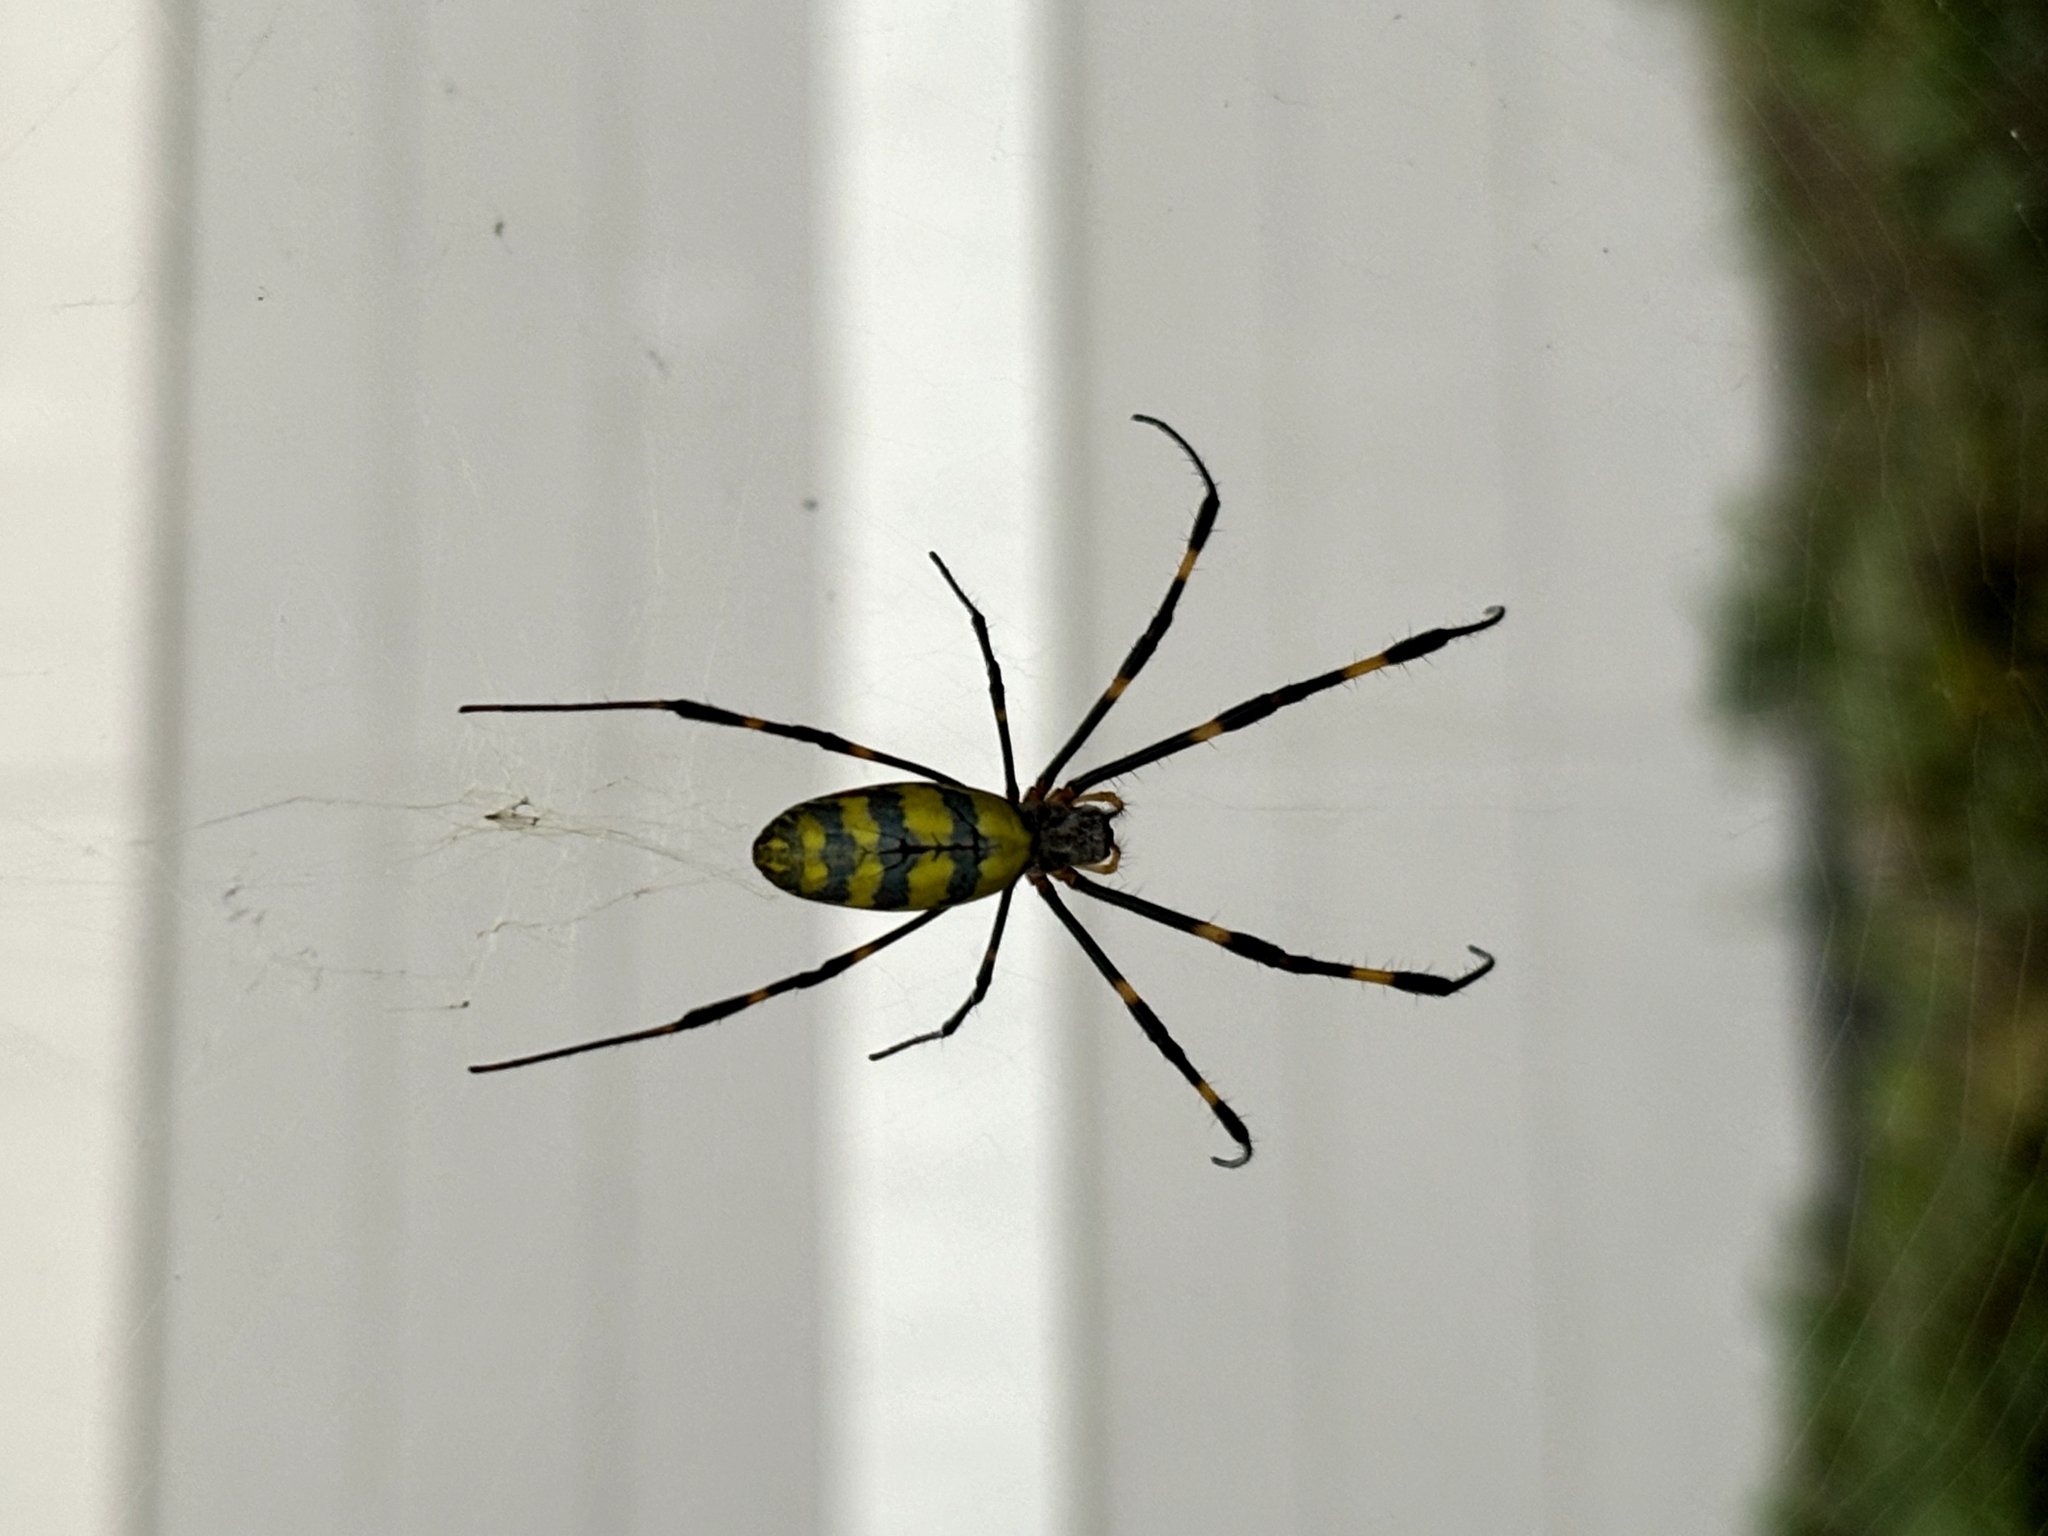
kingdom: Animalia
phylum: Arthropoda
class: Arachnida
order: Araneae
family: Araneidae
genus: Trichonephila
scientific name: Trichonephila clavata
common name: Jorō spider
